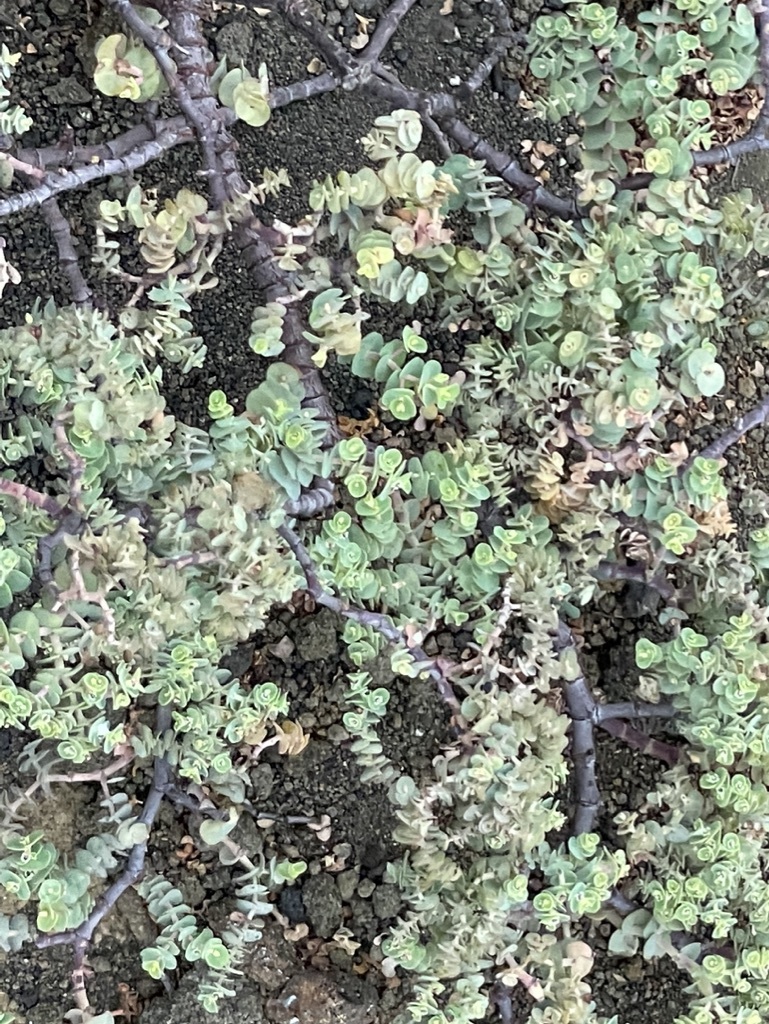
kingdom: Plantae
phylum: Tracheophyta
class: Magnoliopsida
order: Malpighiales
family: Euphorbiaceae
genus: Euphorbia
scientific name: Euphorbia amplexicaulis
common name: Chamaesyce
